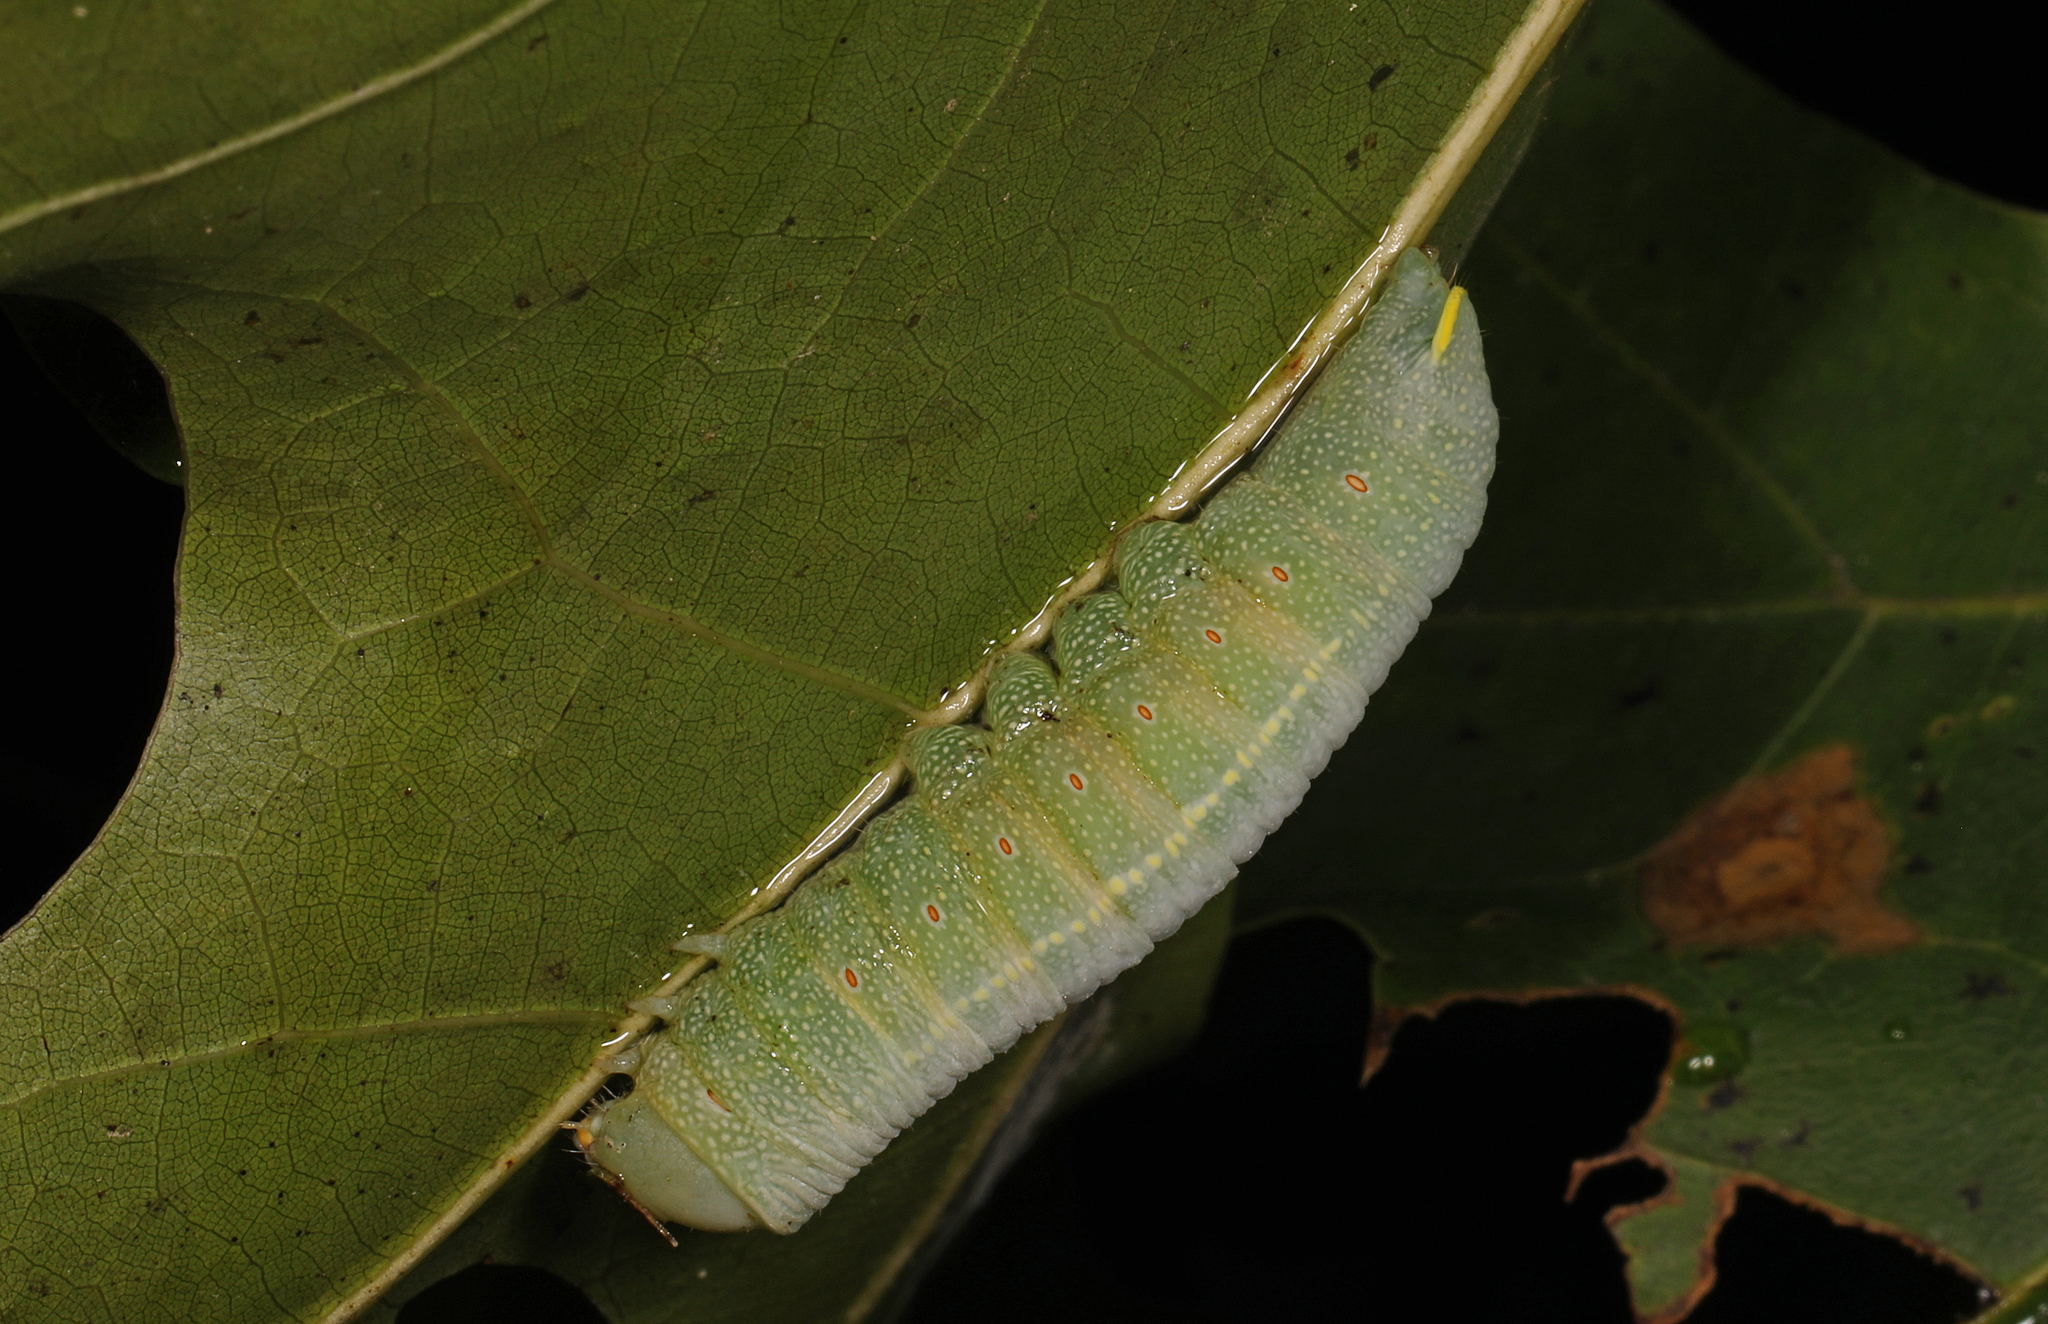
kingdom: Animalia
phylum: Arthropoda
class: Insecta
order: Lepidoptera
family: Notodontidae
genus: Nadata
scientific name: Nadata gibbosa
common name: White-dotted prominent
